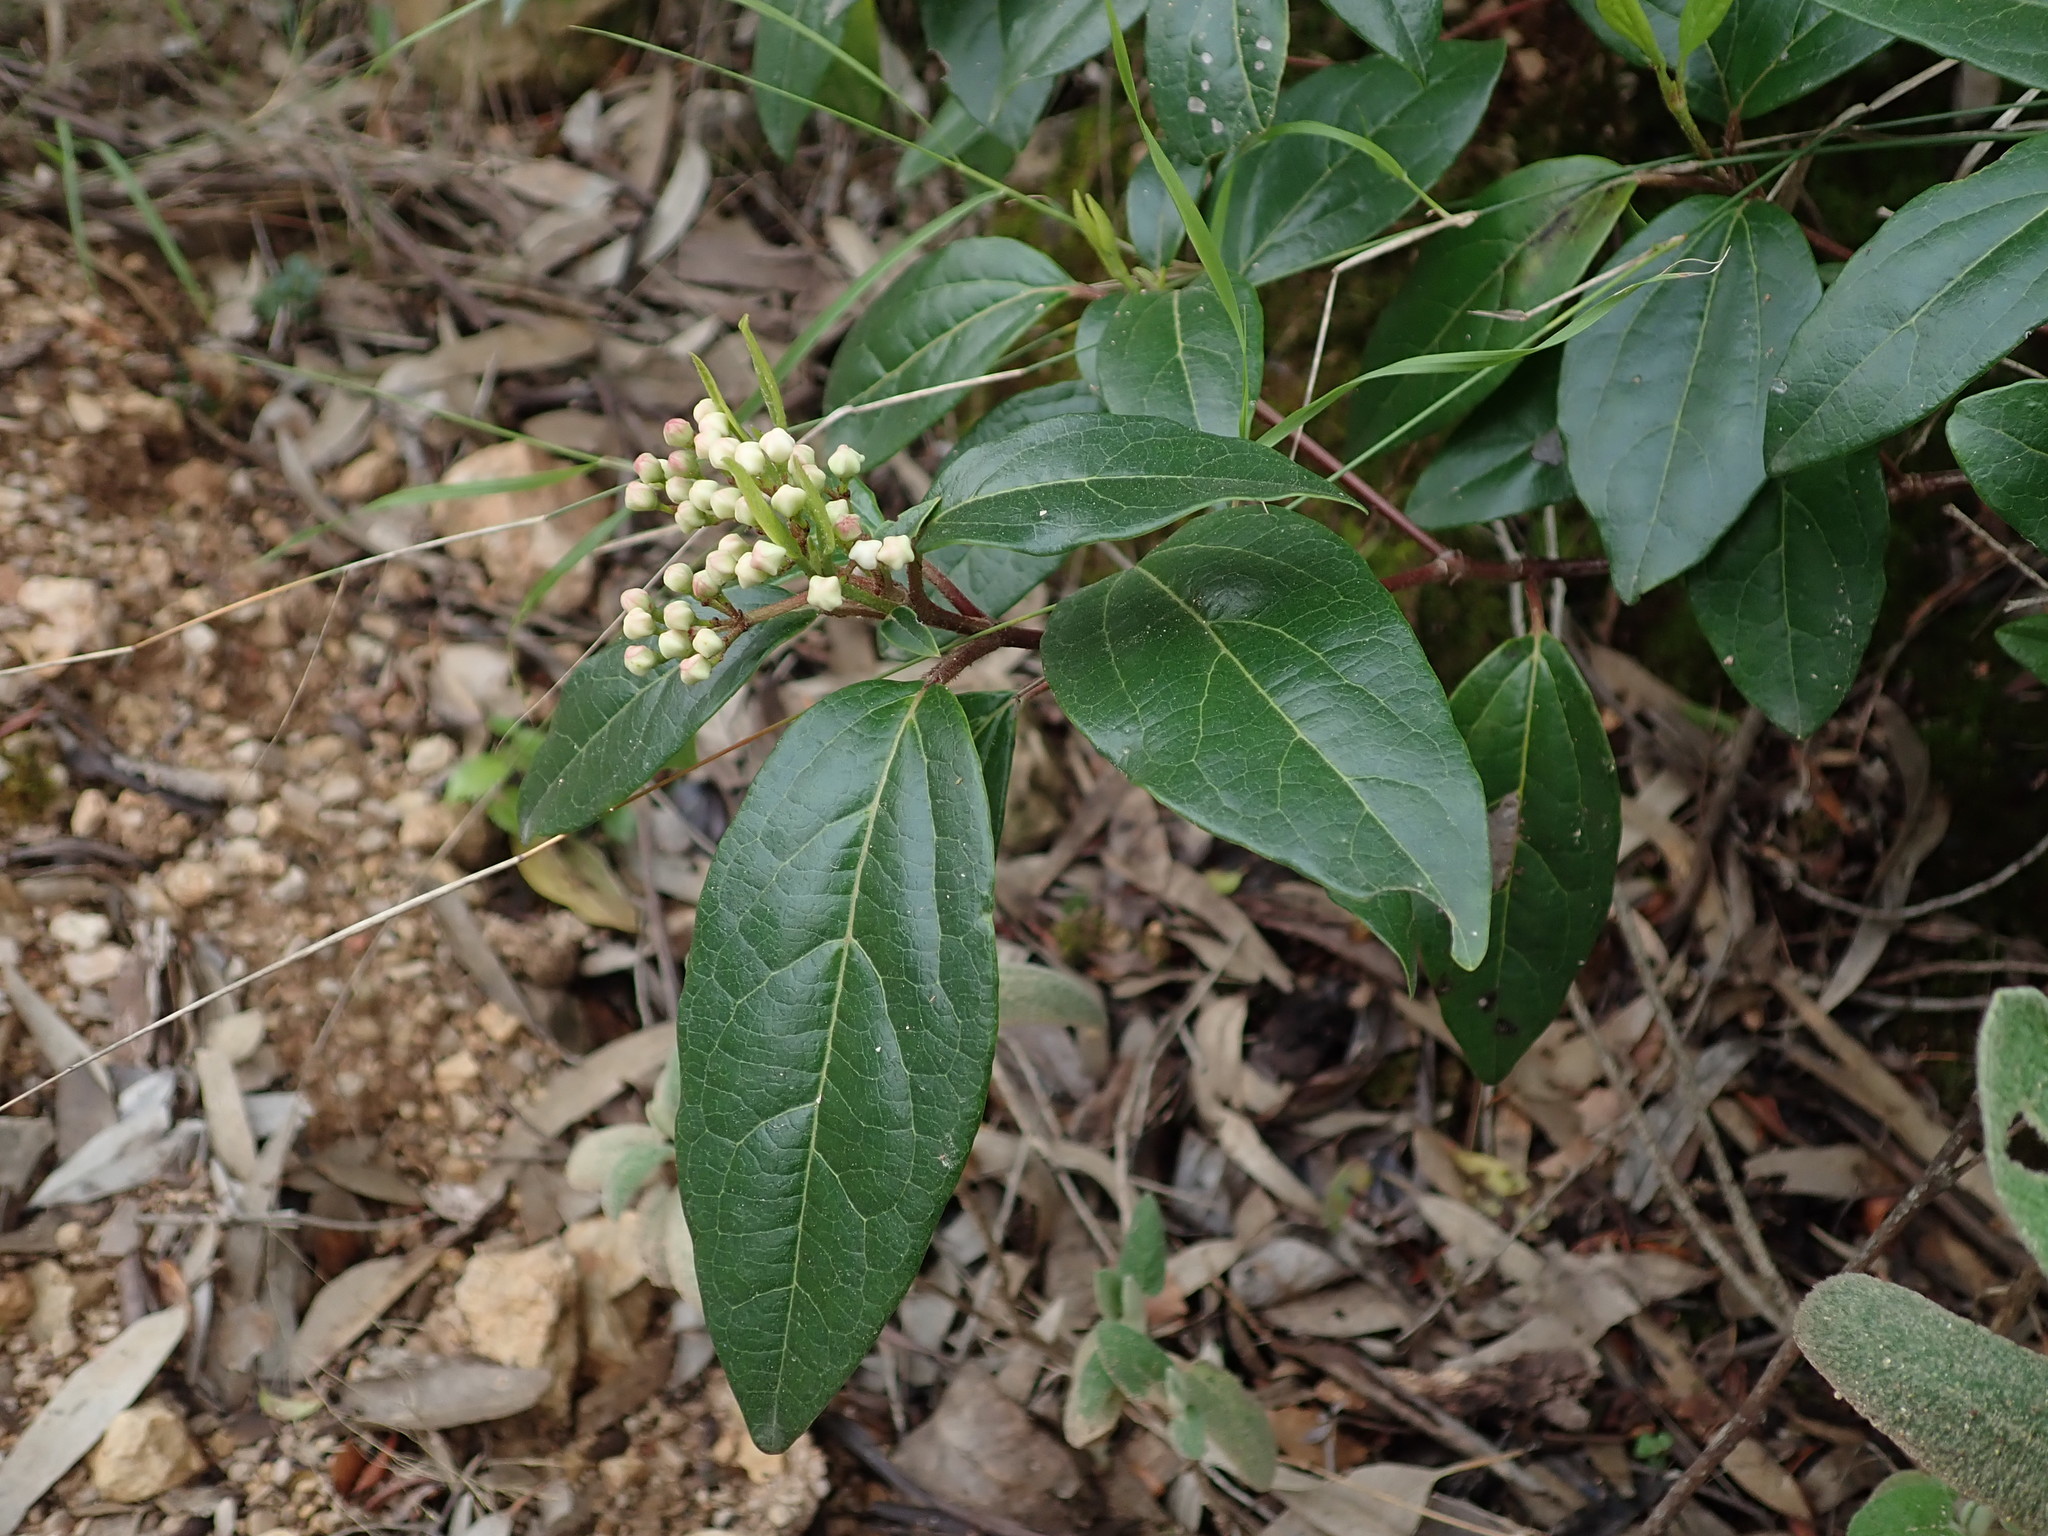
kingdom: Plantae
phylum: Tracheophyta
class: Magnoliopsida
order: Dipsacales
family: Viburnaceae
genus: Viburnum
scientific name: Viburnum tinus
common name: Laurustinus
